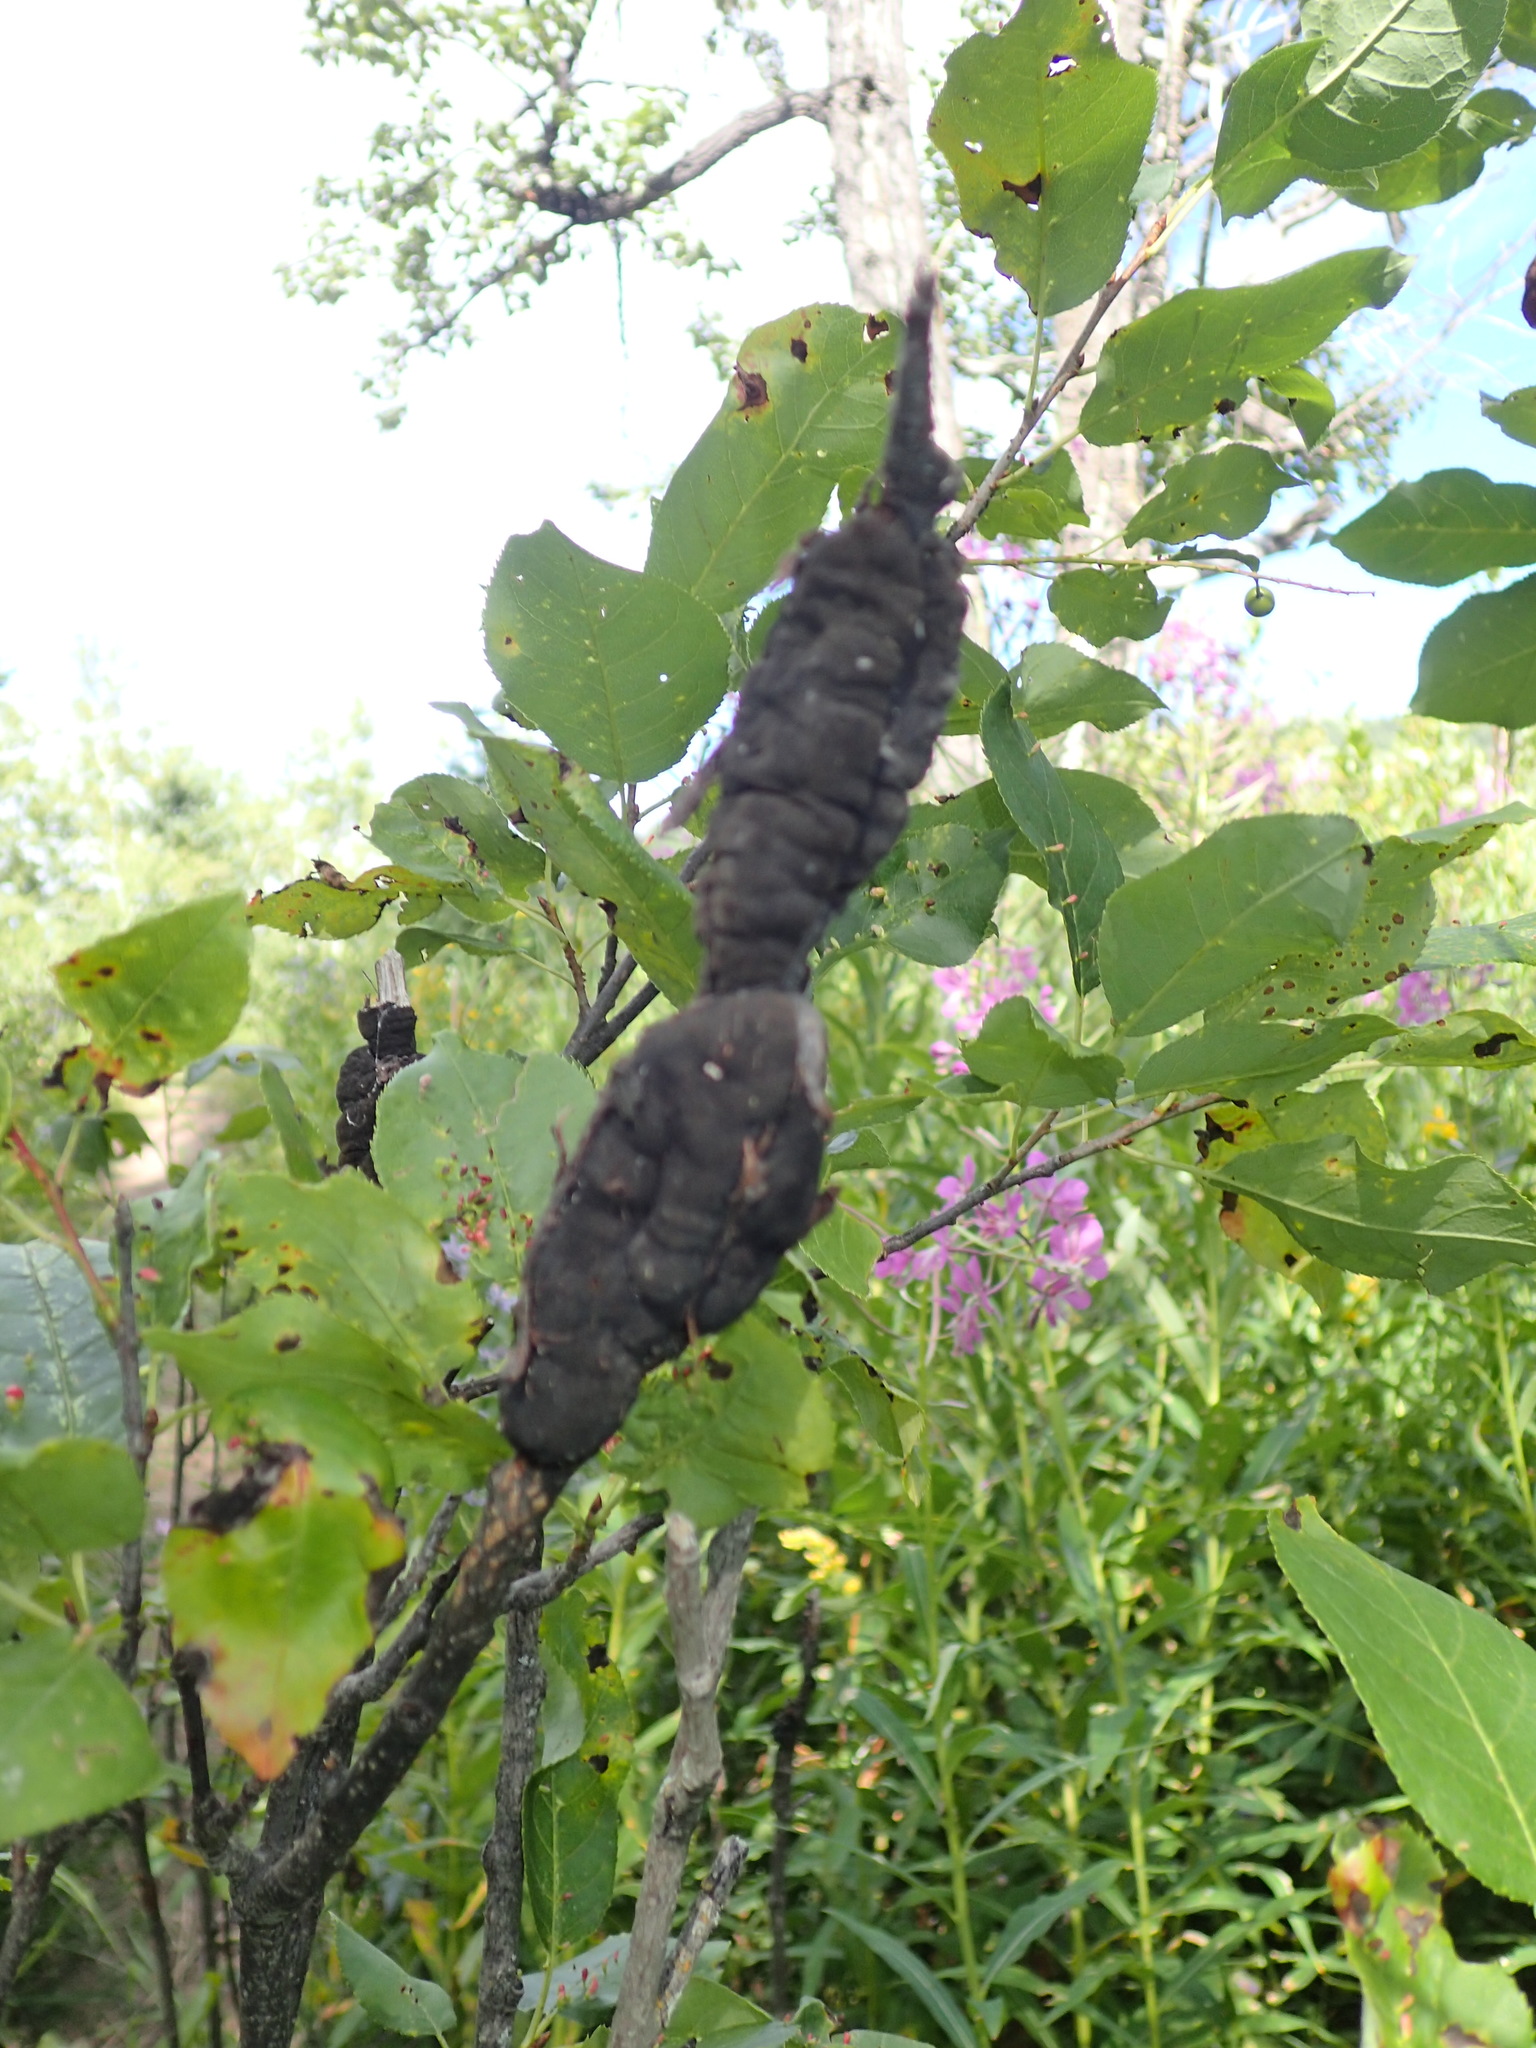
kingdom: Fungi
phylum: Ascomycota
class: Dothideomycetes
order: Venturiales
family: Venturiaceae
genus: Apiosporina
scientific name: Apiosporina morbosa
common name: Black knot
